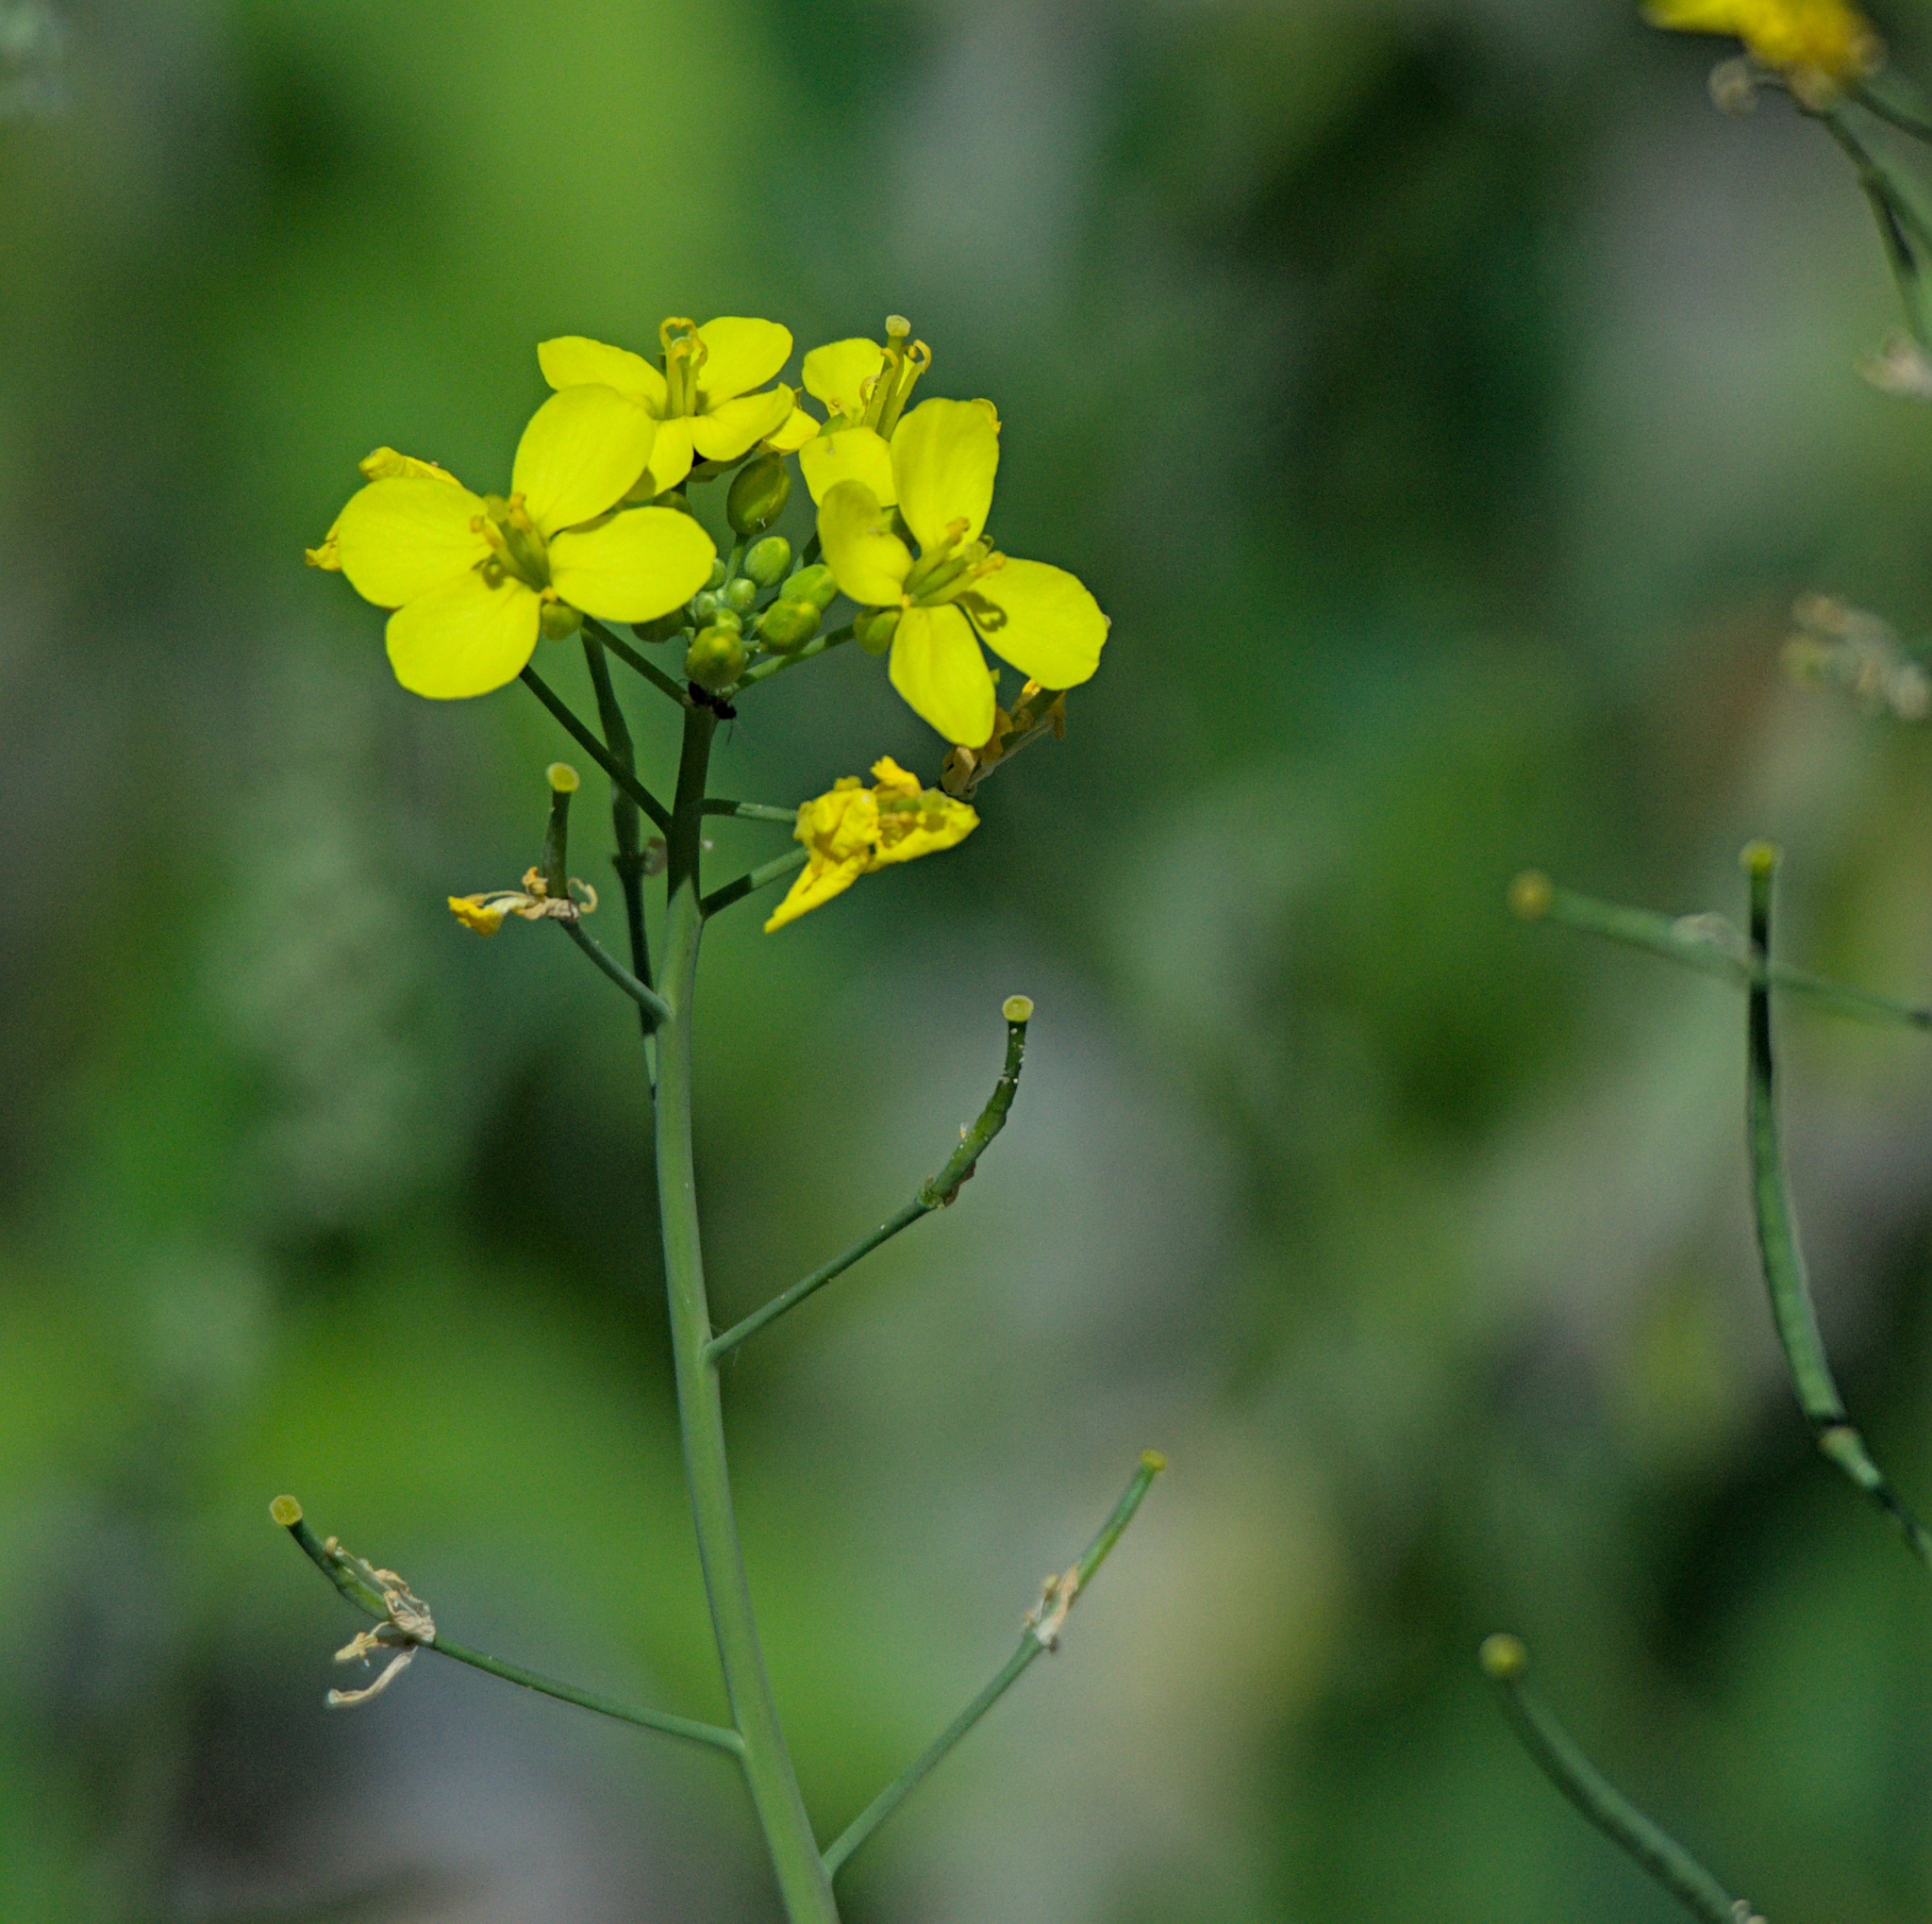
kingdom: Plantae
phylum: Tracheophyta
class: Magnoliopsida
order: Brassicales
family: Brassicaceae
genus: Brassica
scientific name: Brassica rapa
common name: Field mustard
